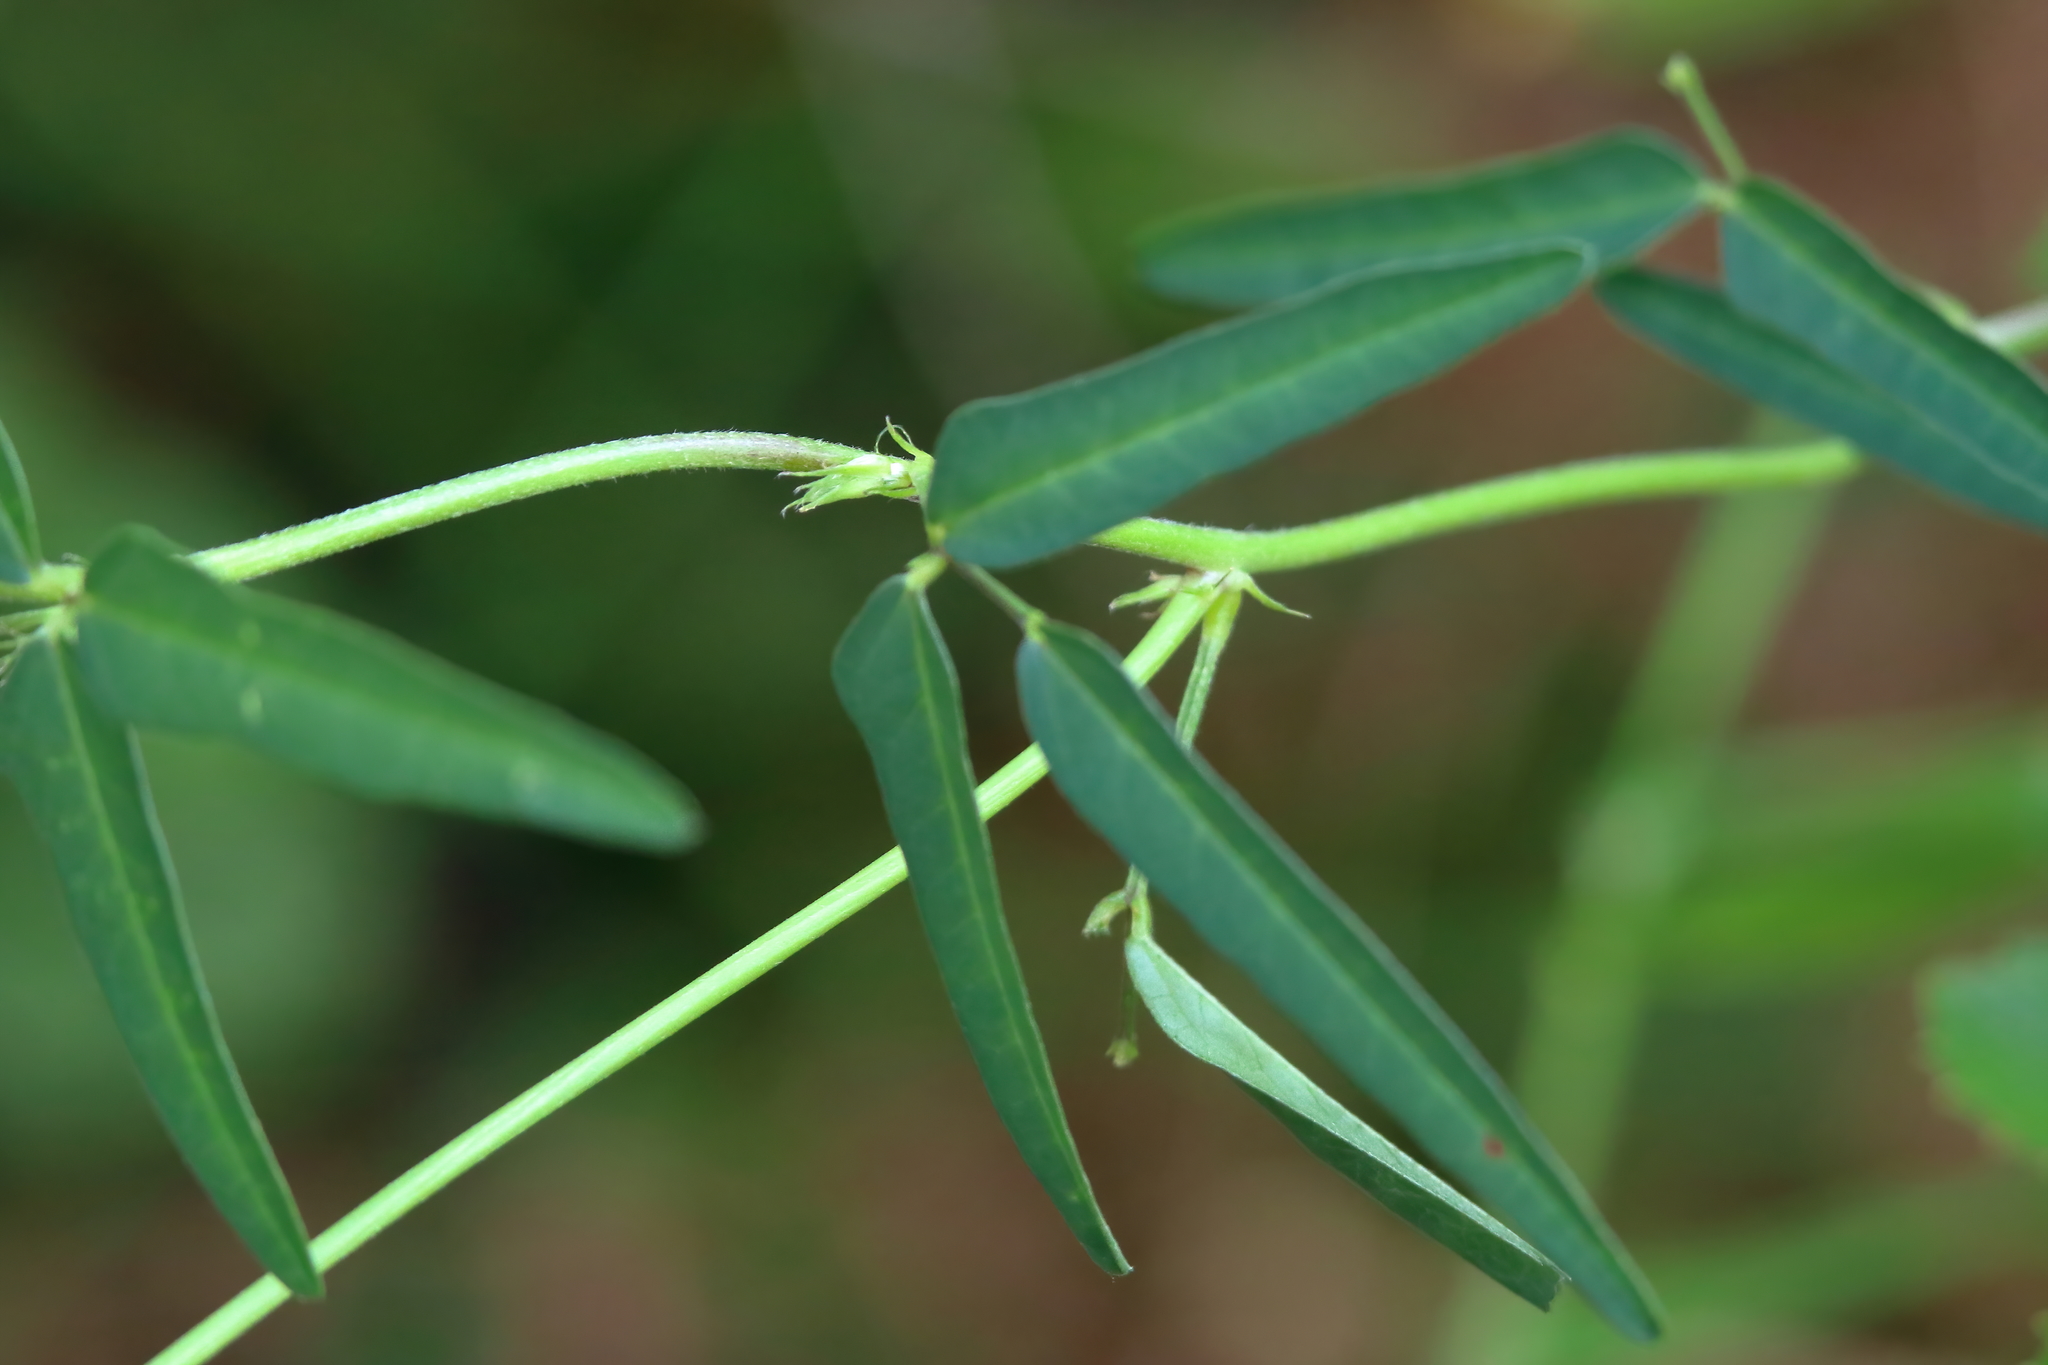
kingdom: Plantae
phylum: Tracheophyta
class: Magnoliopsida
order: Fabales
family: Fabaceae
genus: Macroptilium
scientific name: Macroptilium lathyroides
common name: Wild bushbean
